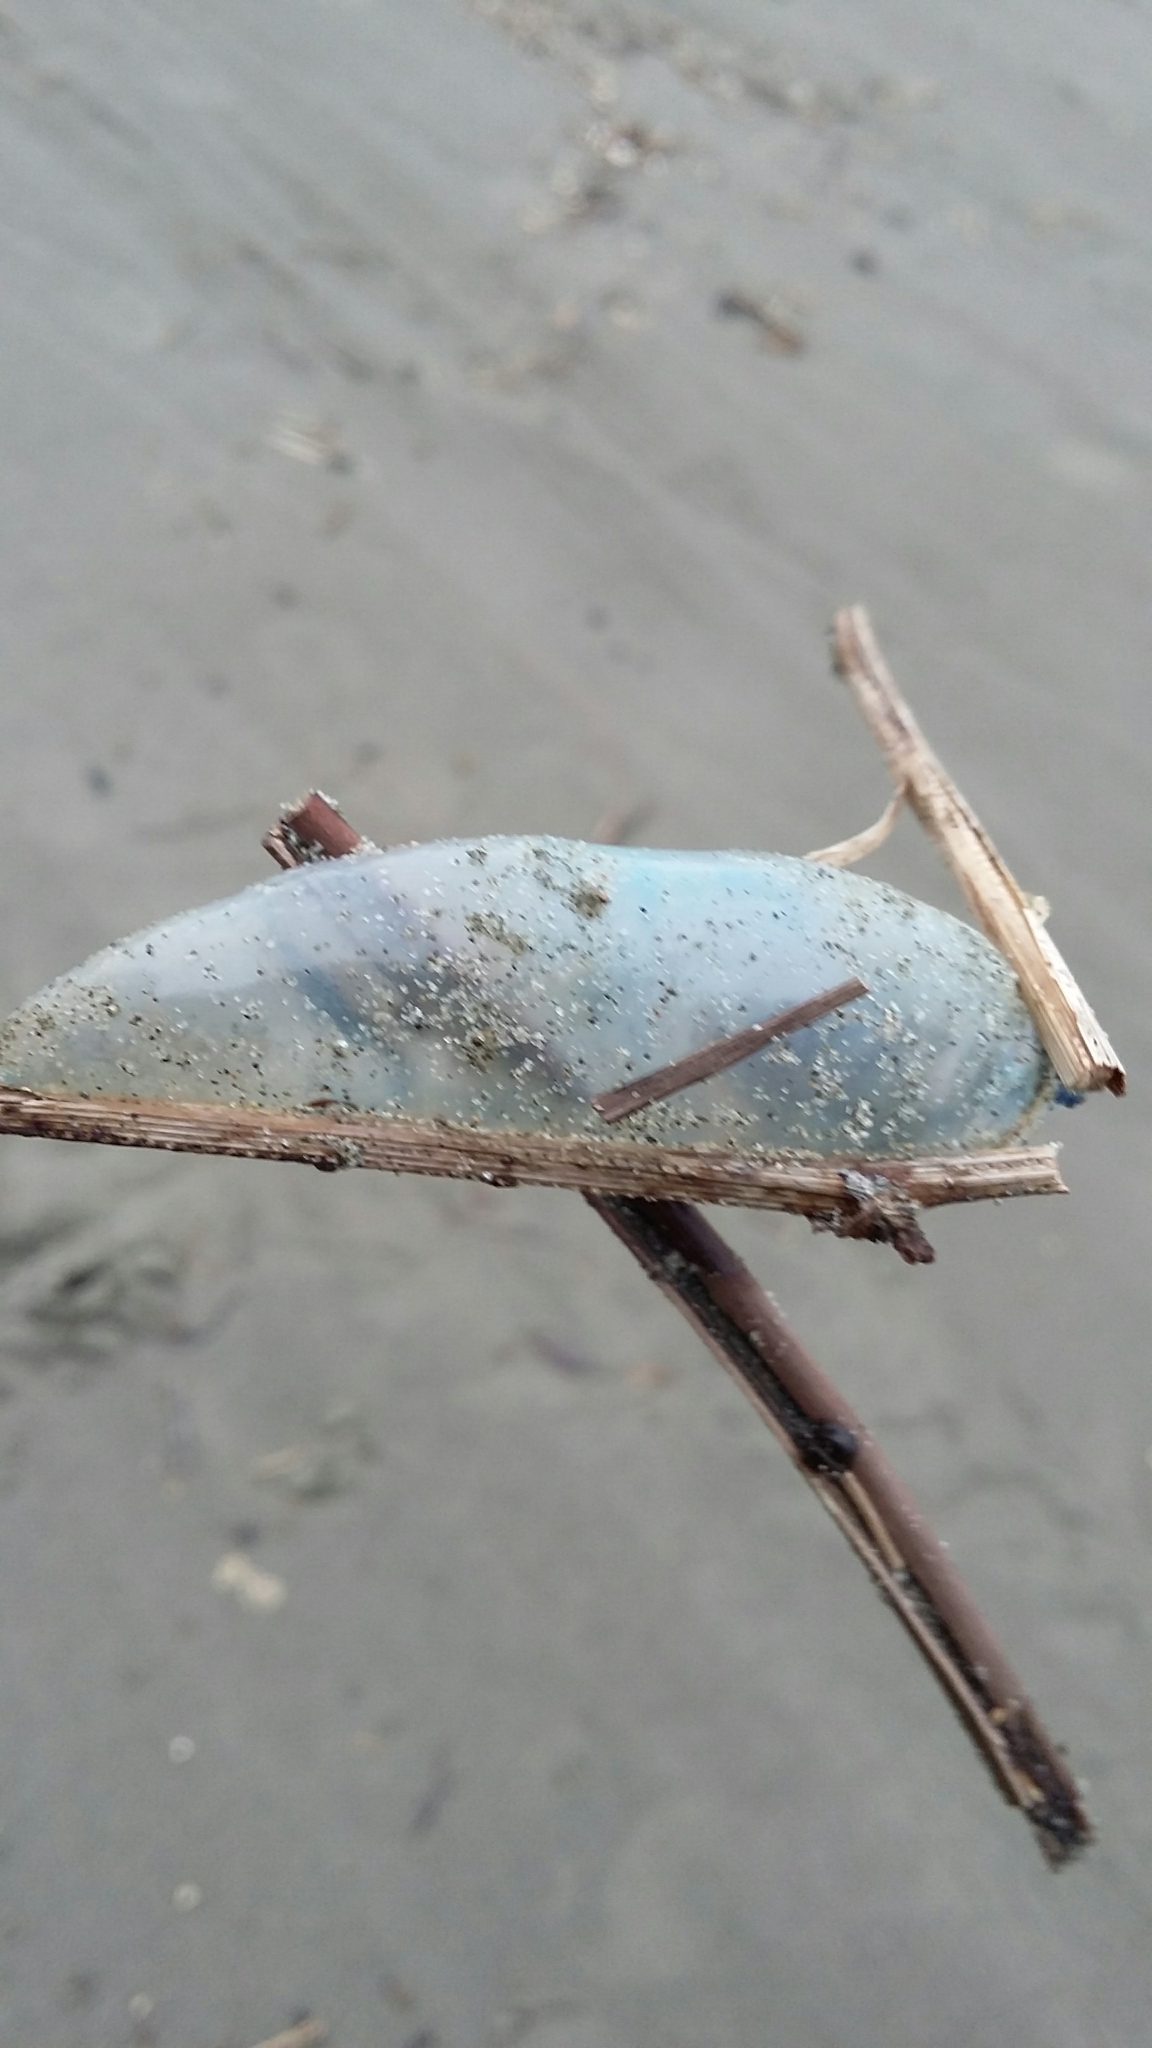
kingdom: Animalia
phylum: Cnidaria
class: Hydrozoa
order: Siphonophorae
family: Physaliidae
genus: Physalia
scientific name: Physalia physalis
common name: Portuguese man-of-war
